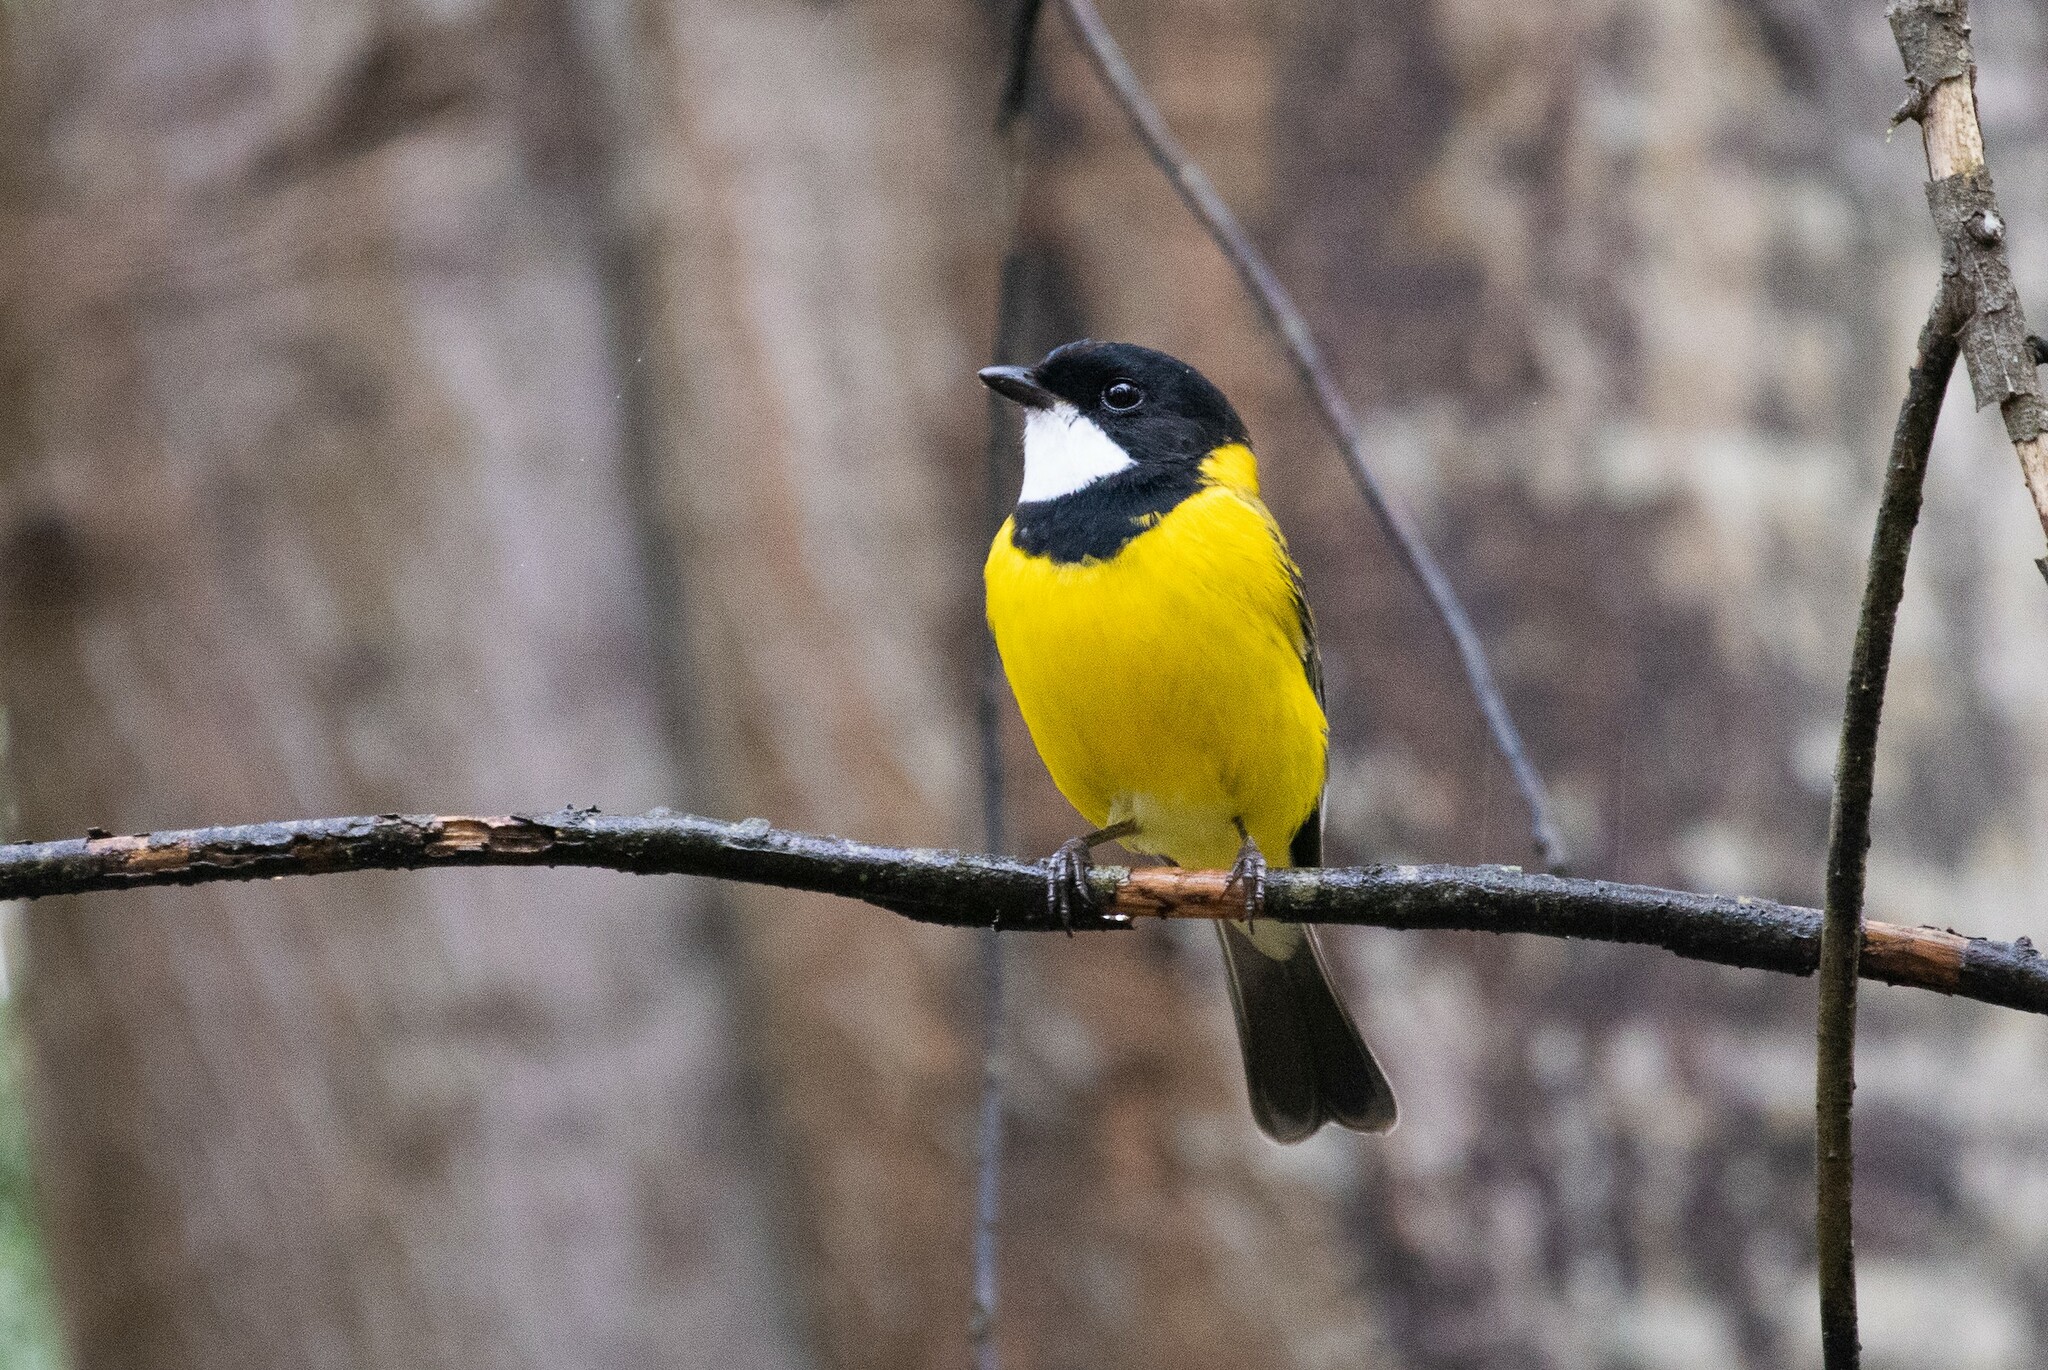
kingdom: Animalia
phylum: Chordata
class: Aves
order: Passeriformes
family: Pachycephalidae
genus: Pachycephala
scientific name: Pachycephala pectoralis
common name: Australian golden whistler
